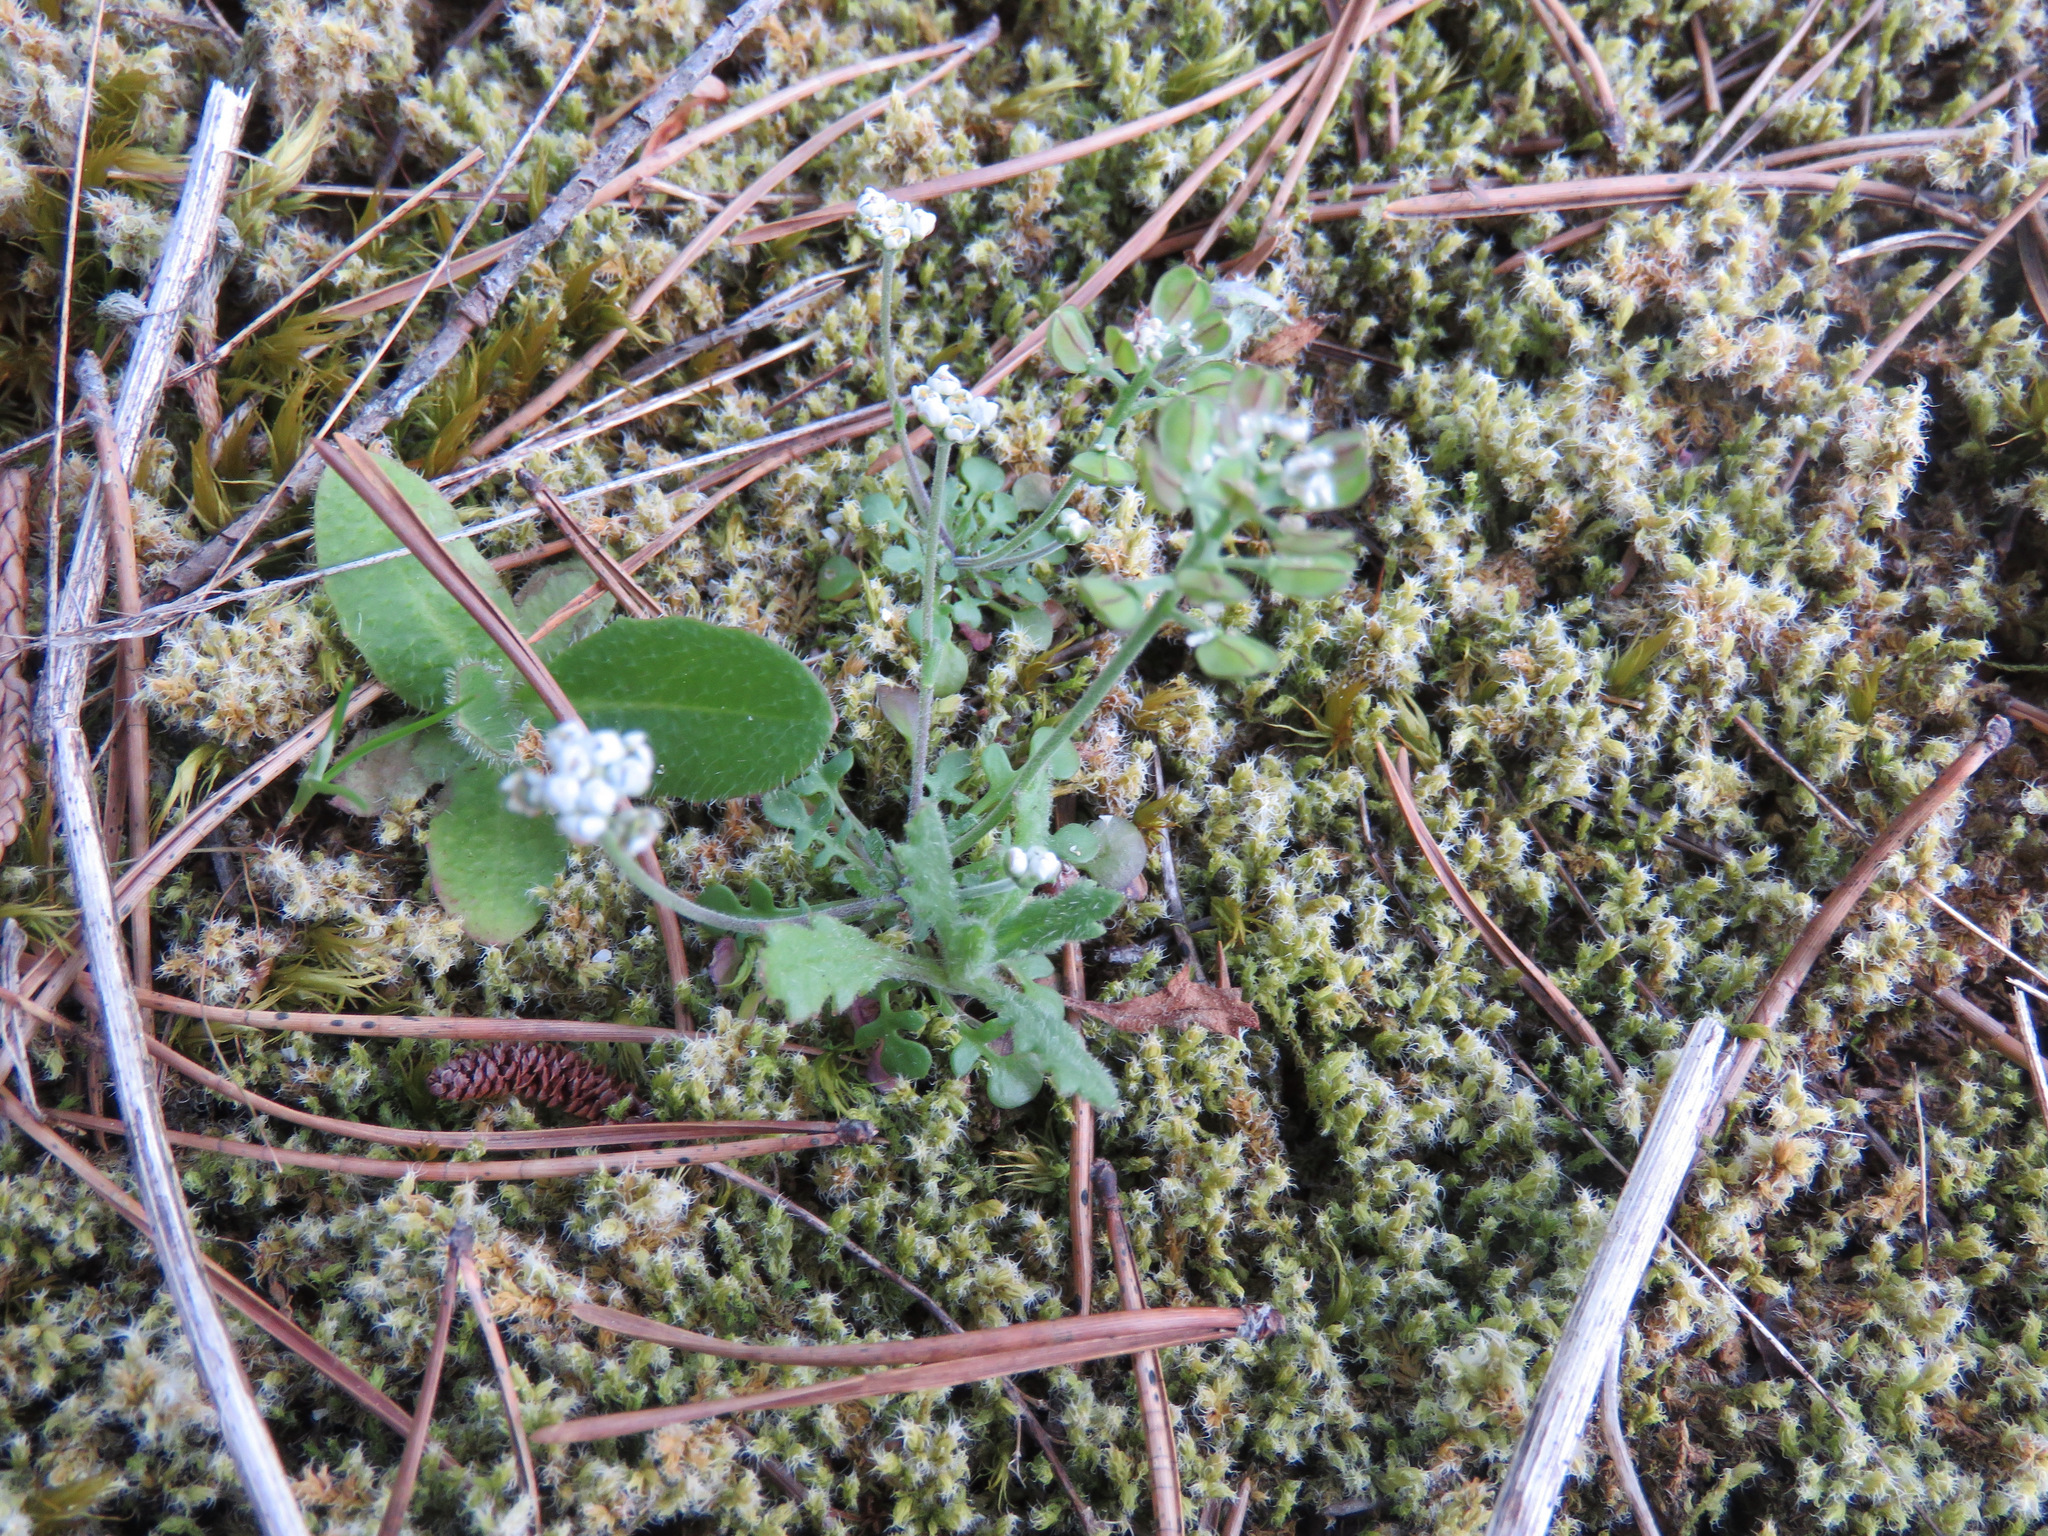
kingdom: Plantae
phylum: Tracheophyta
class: Magnoliopsida
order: Brassicales
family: Brassicaceae
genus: Teesdalia
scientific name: Teesdalia nudicaulis
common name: Shepherd's cress
